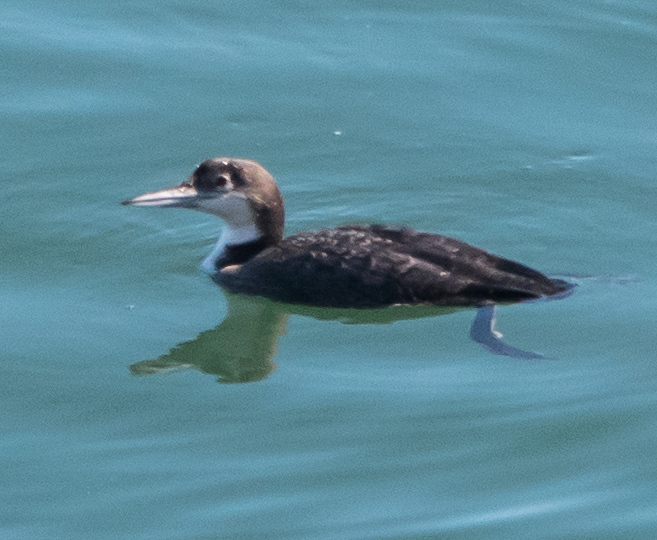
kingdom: Animalia
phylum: Chordata
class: Aves
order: Gaviiformes
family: Gaviidae
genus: Gavia
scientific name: Gavia immer
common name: Common loon
